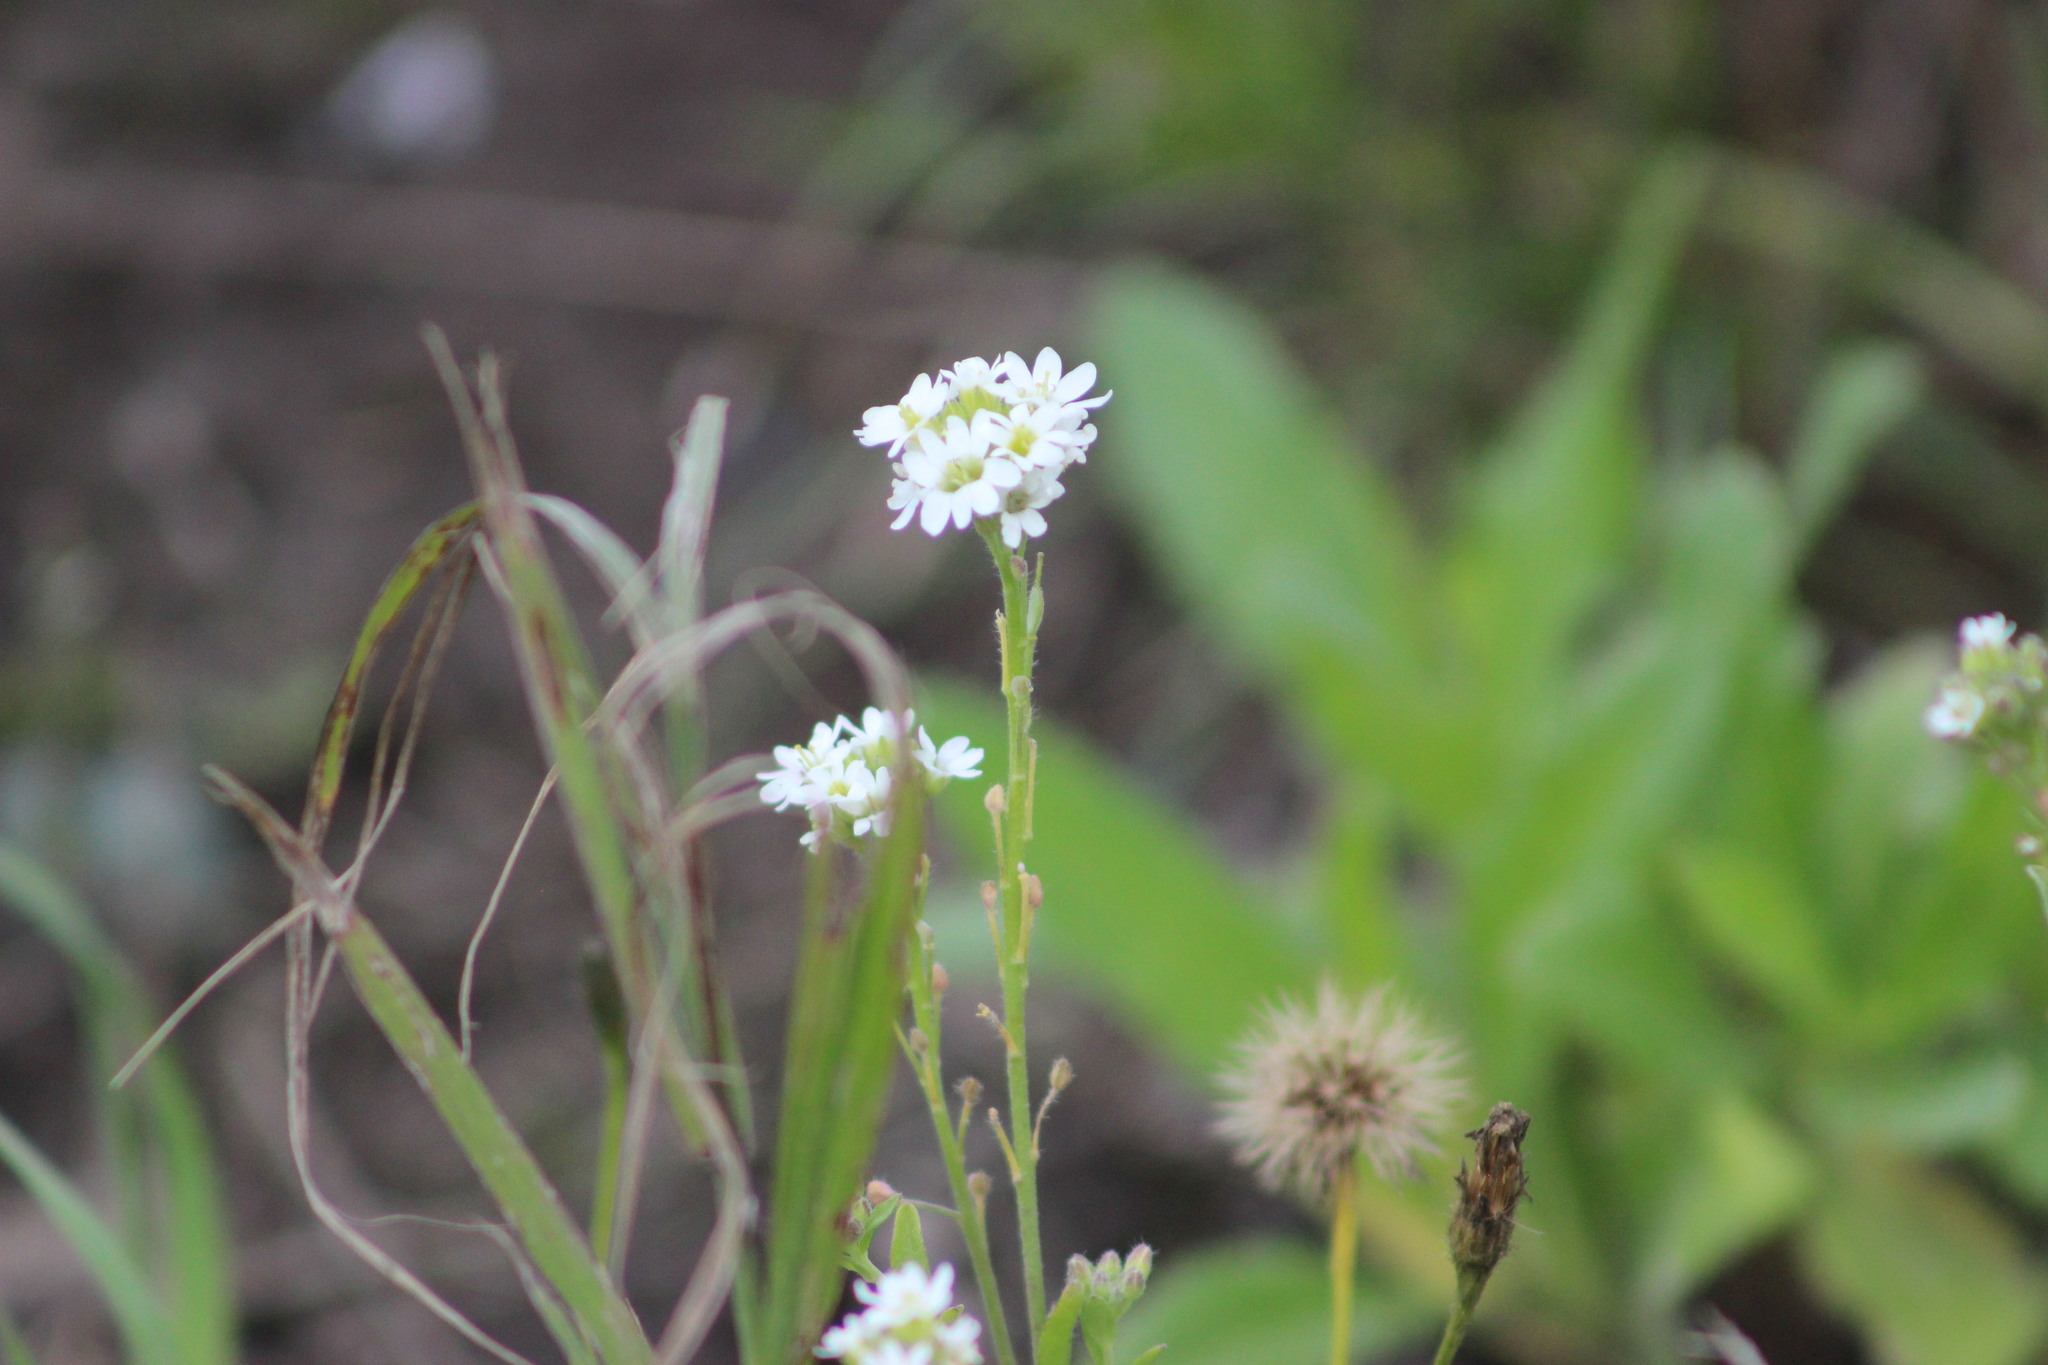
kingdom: Plantae
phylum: Tracheophyta
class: Magnoliopsida
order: Brassicales
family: Brassicaceae
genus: Berteroa
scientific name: Berteroa incana
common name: Hoary alison
